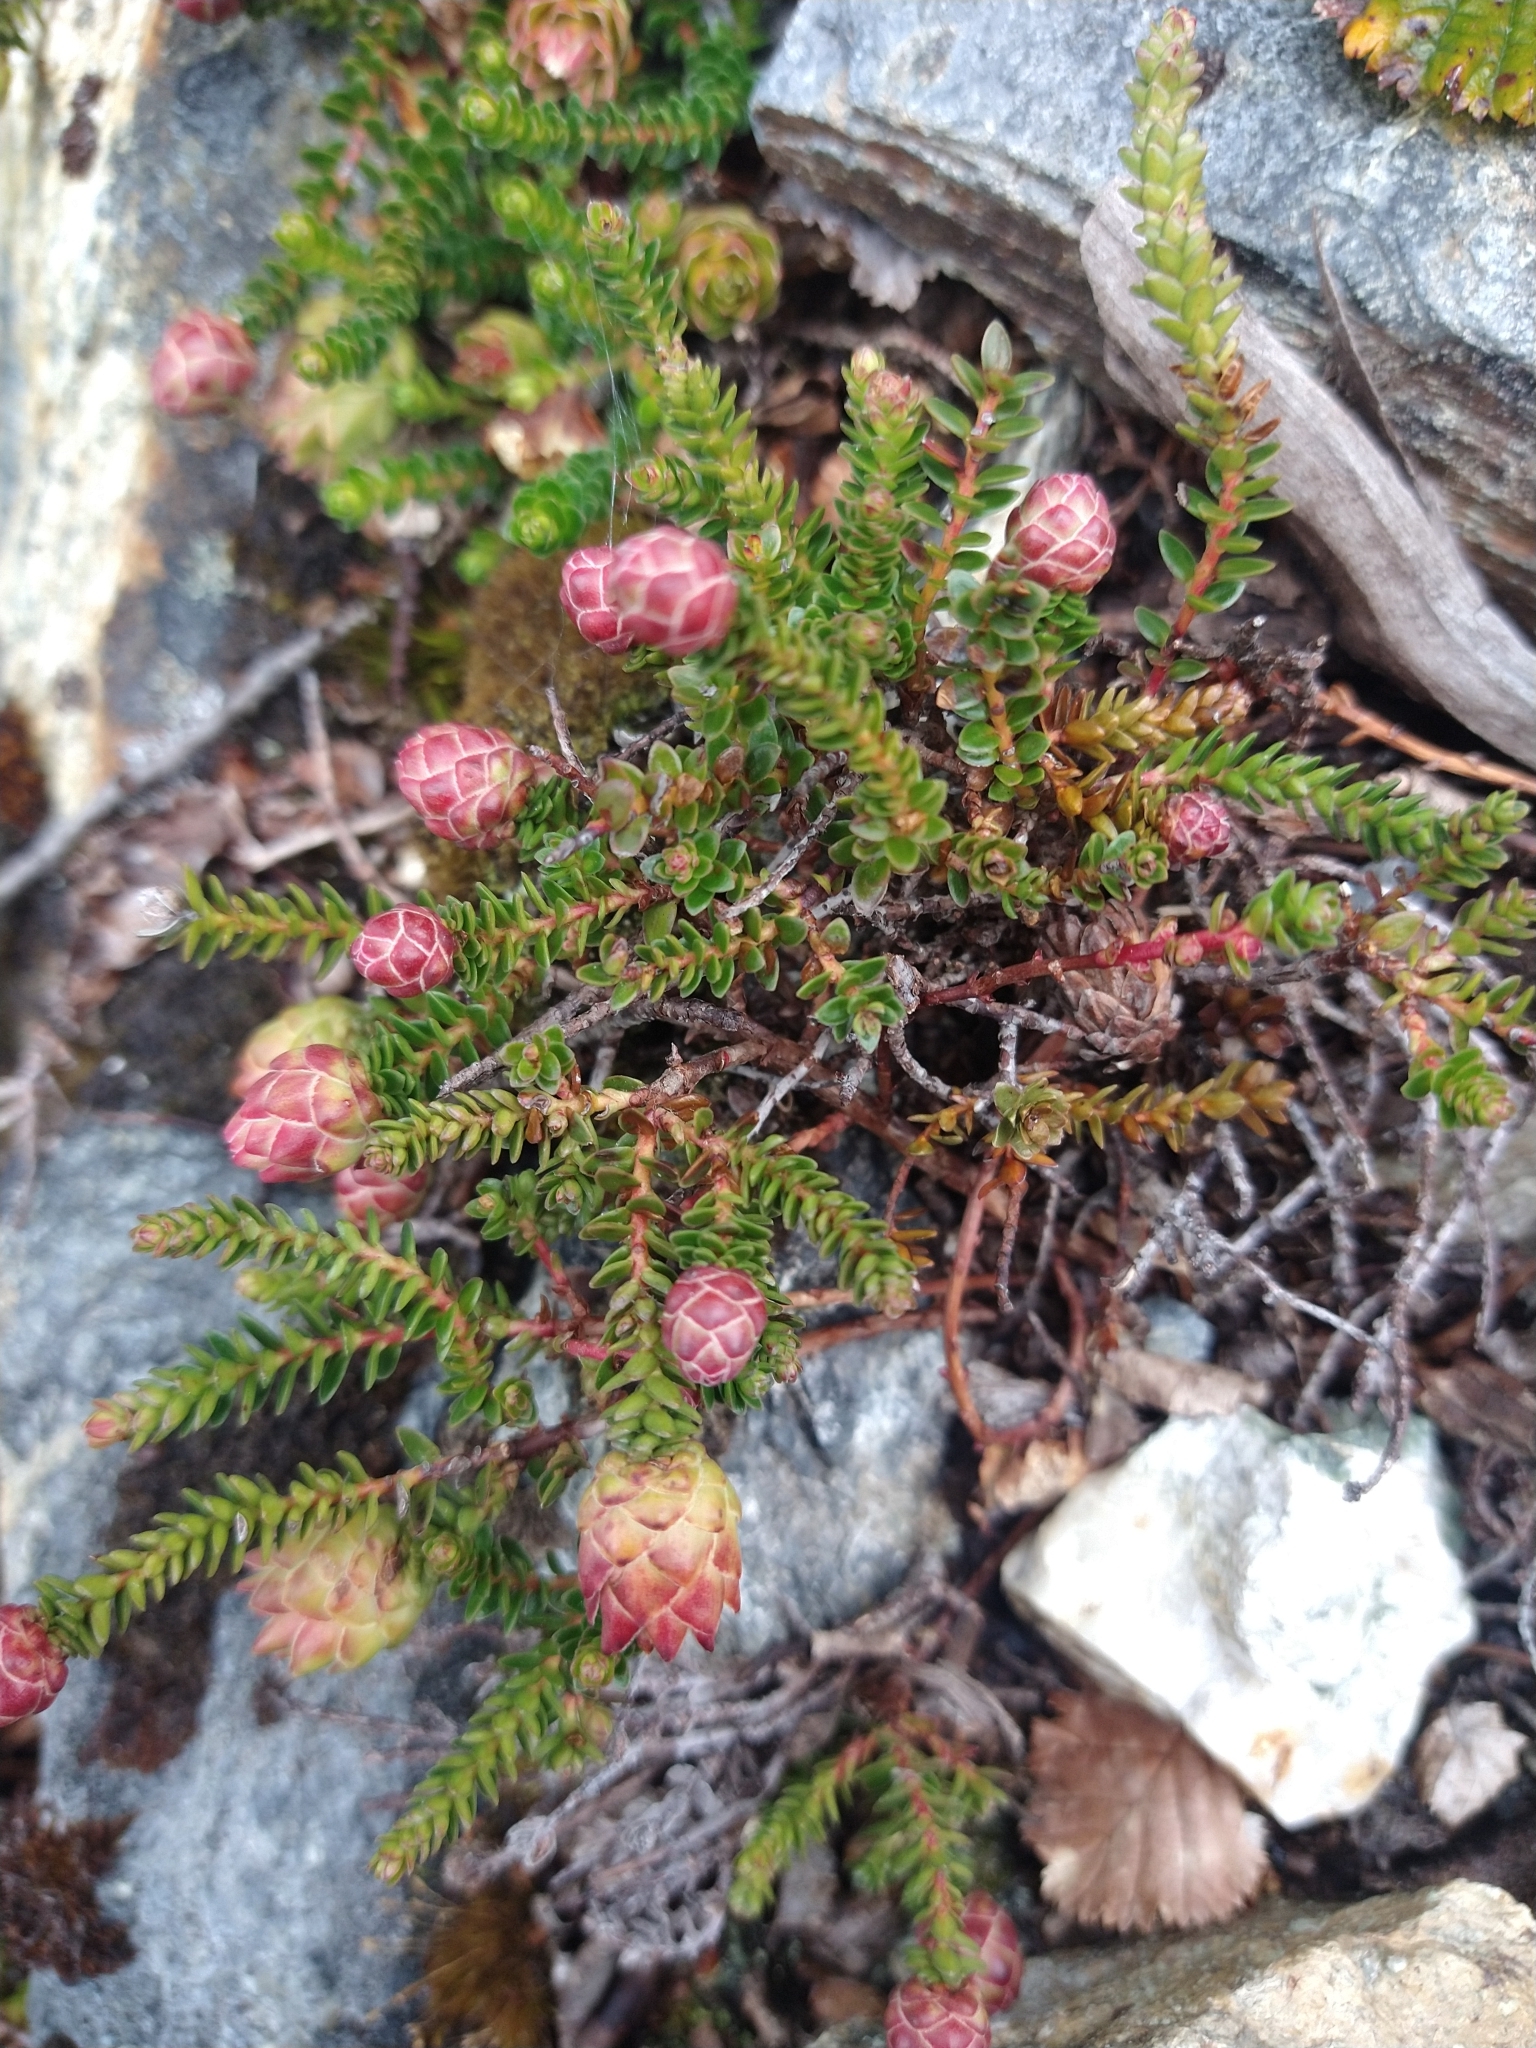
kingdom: Plantae
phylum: Tracheophyta
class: Magnoliopsida
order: Ericales
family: Ericaceae
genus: Gaultheria
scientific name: Gaultheria pumila
